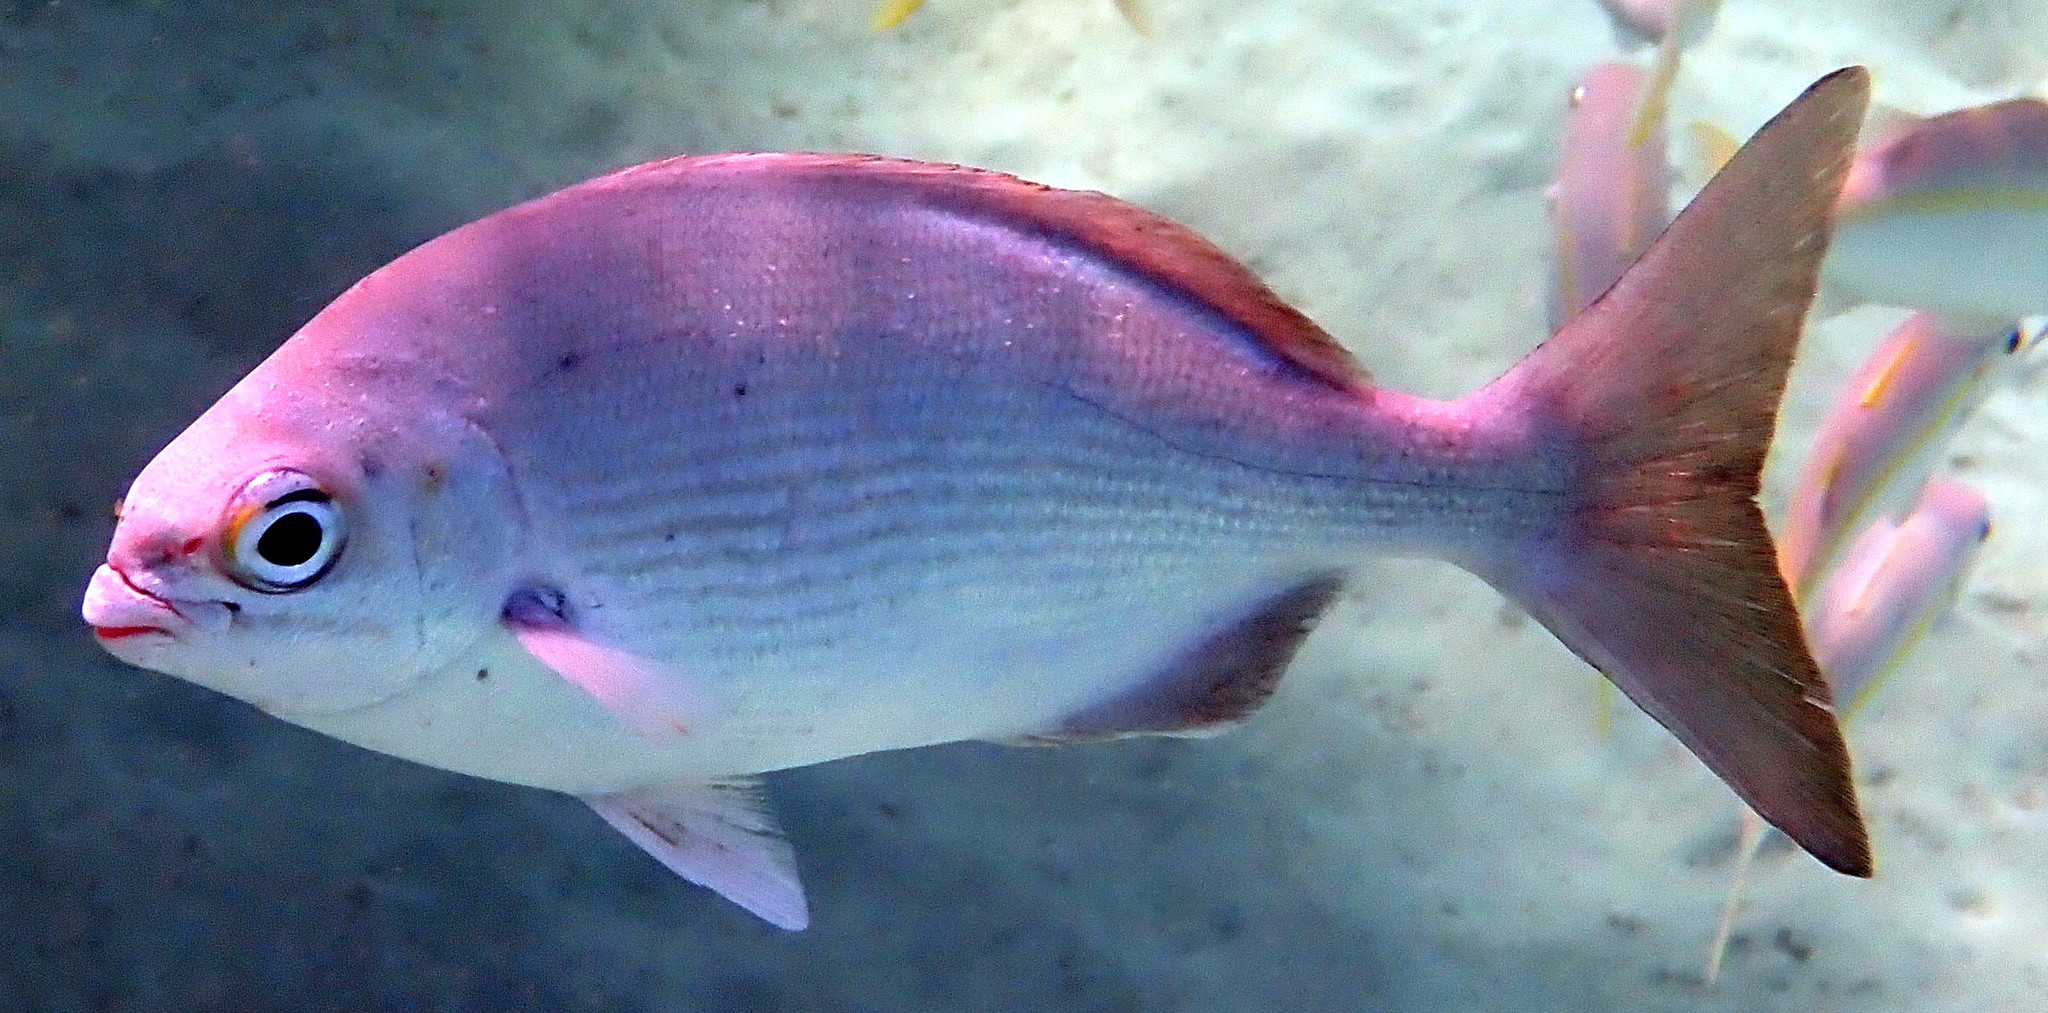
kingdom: Animalia
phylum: Chordata
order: Perciformes
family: Kyphosidae
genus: Kyphosus
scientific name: Kyphosus sectatrix
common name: Bermuda chub
